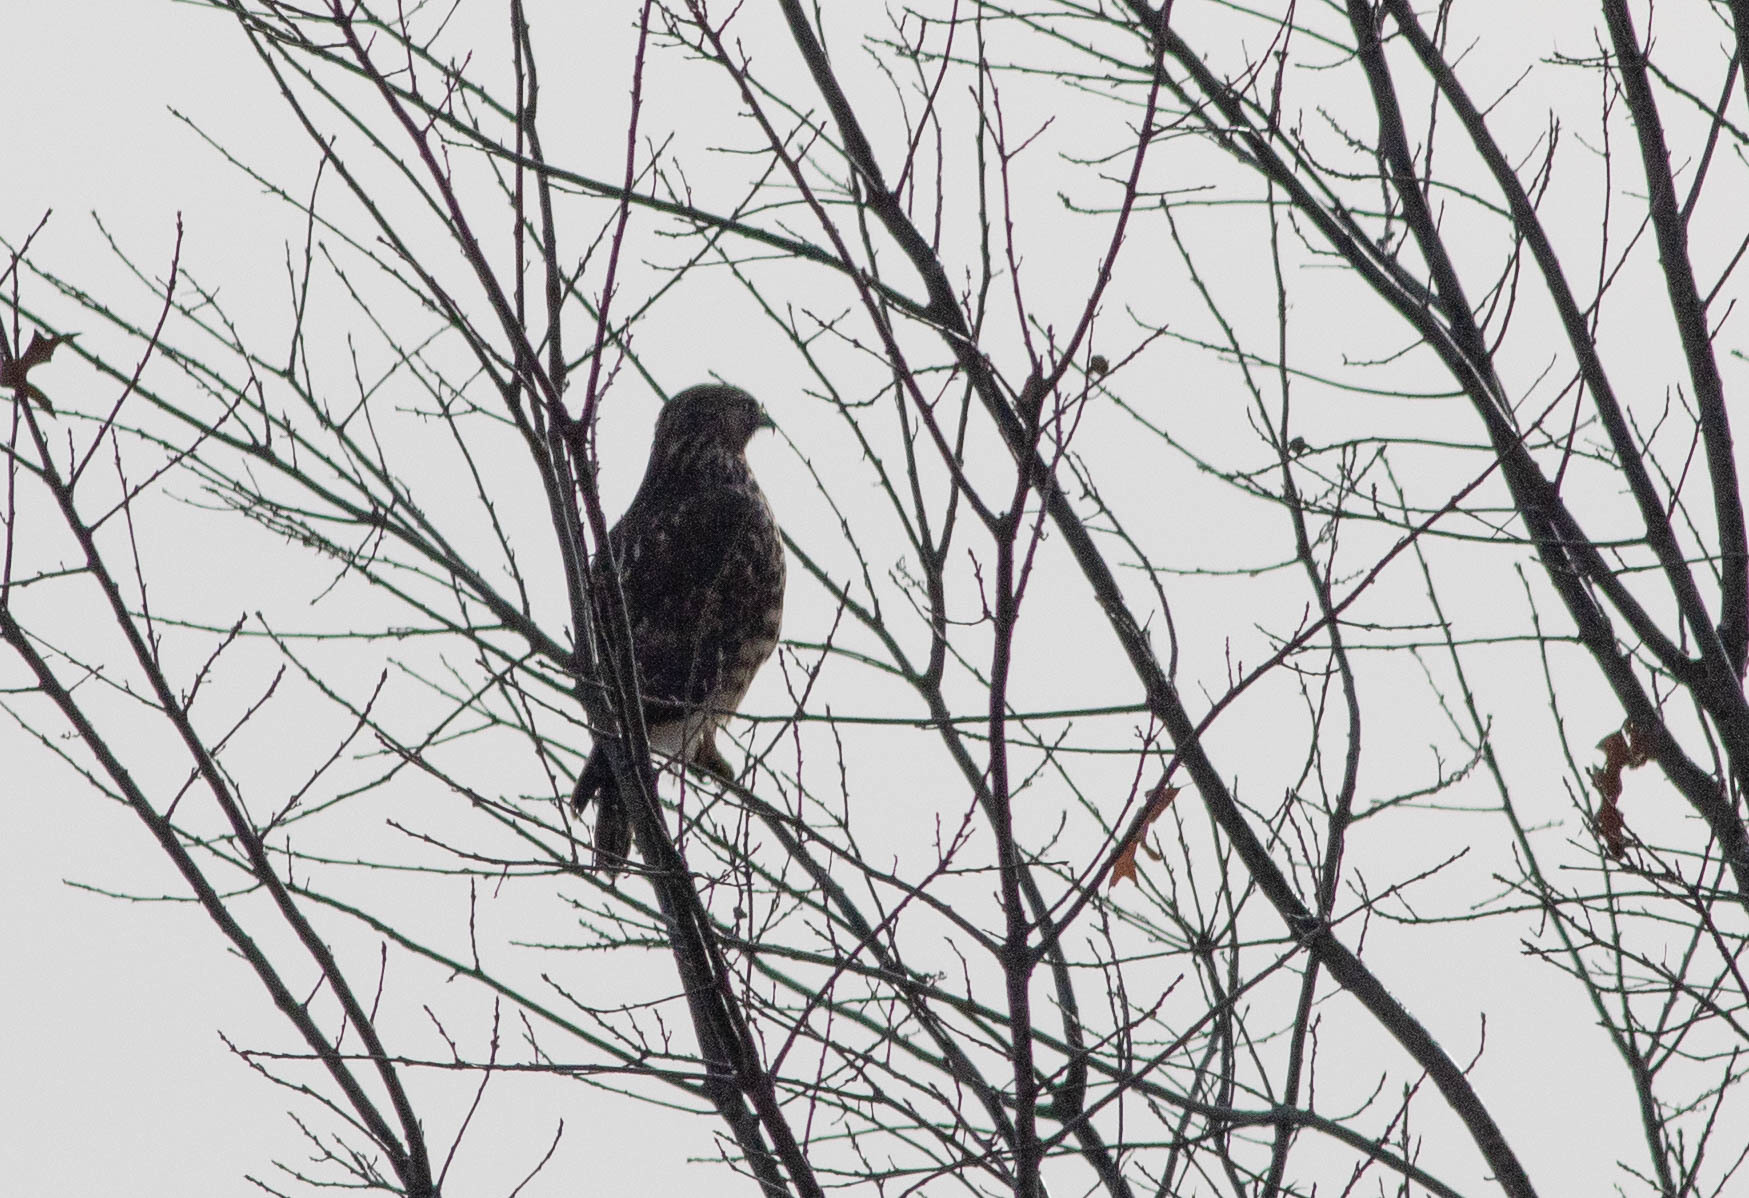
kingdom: Animalia
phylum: Chordata
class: Aves
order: Accipitriformes
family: Accipitridae
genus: Buteo
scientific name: Buteo jamaicensis
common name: Red-tailed hawk
